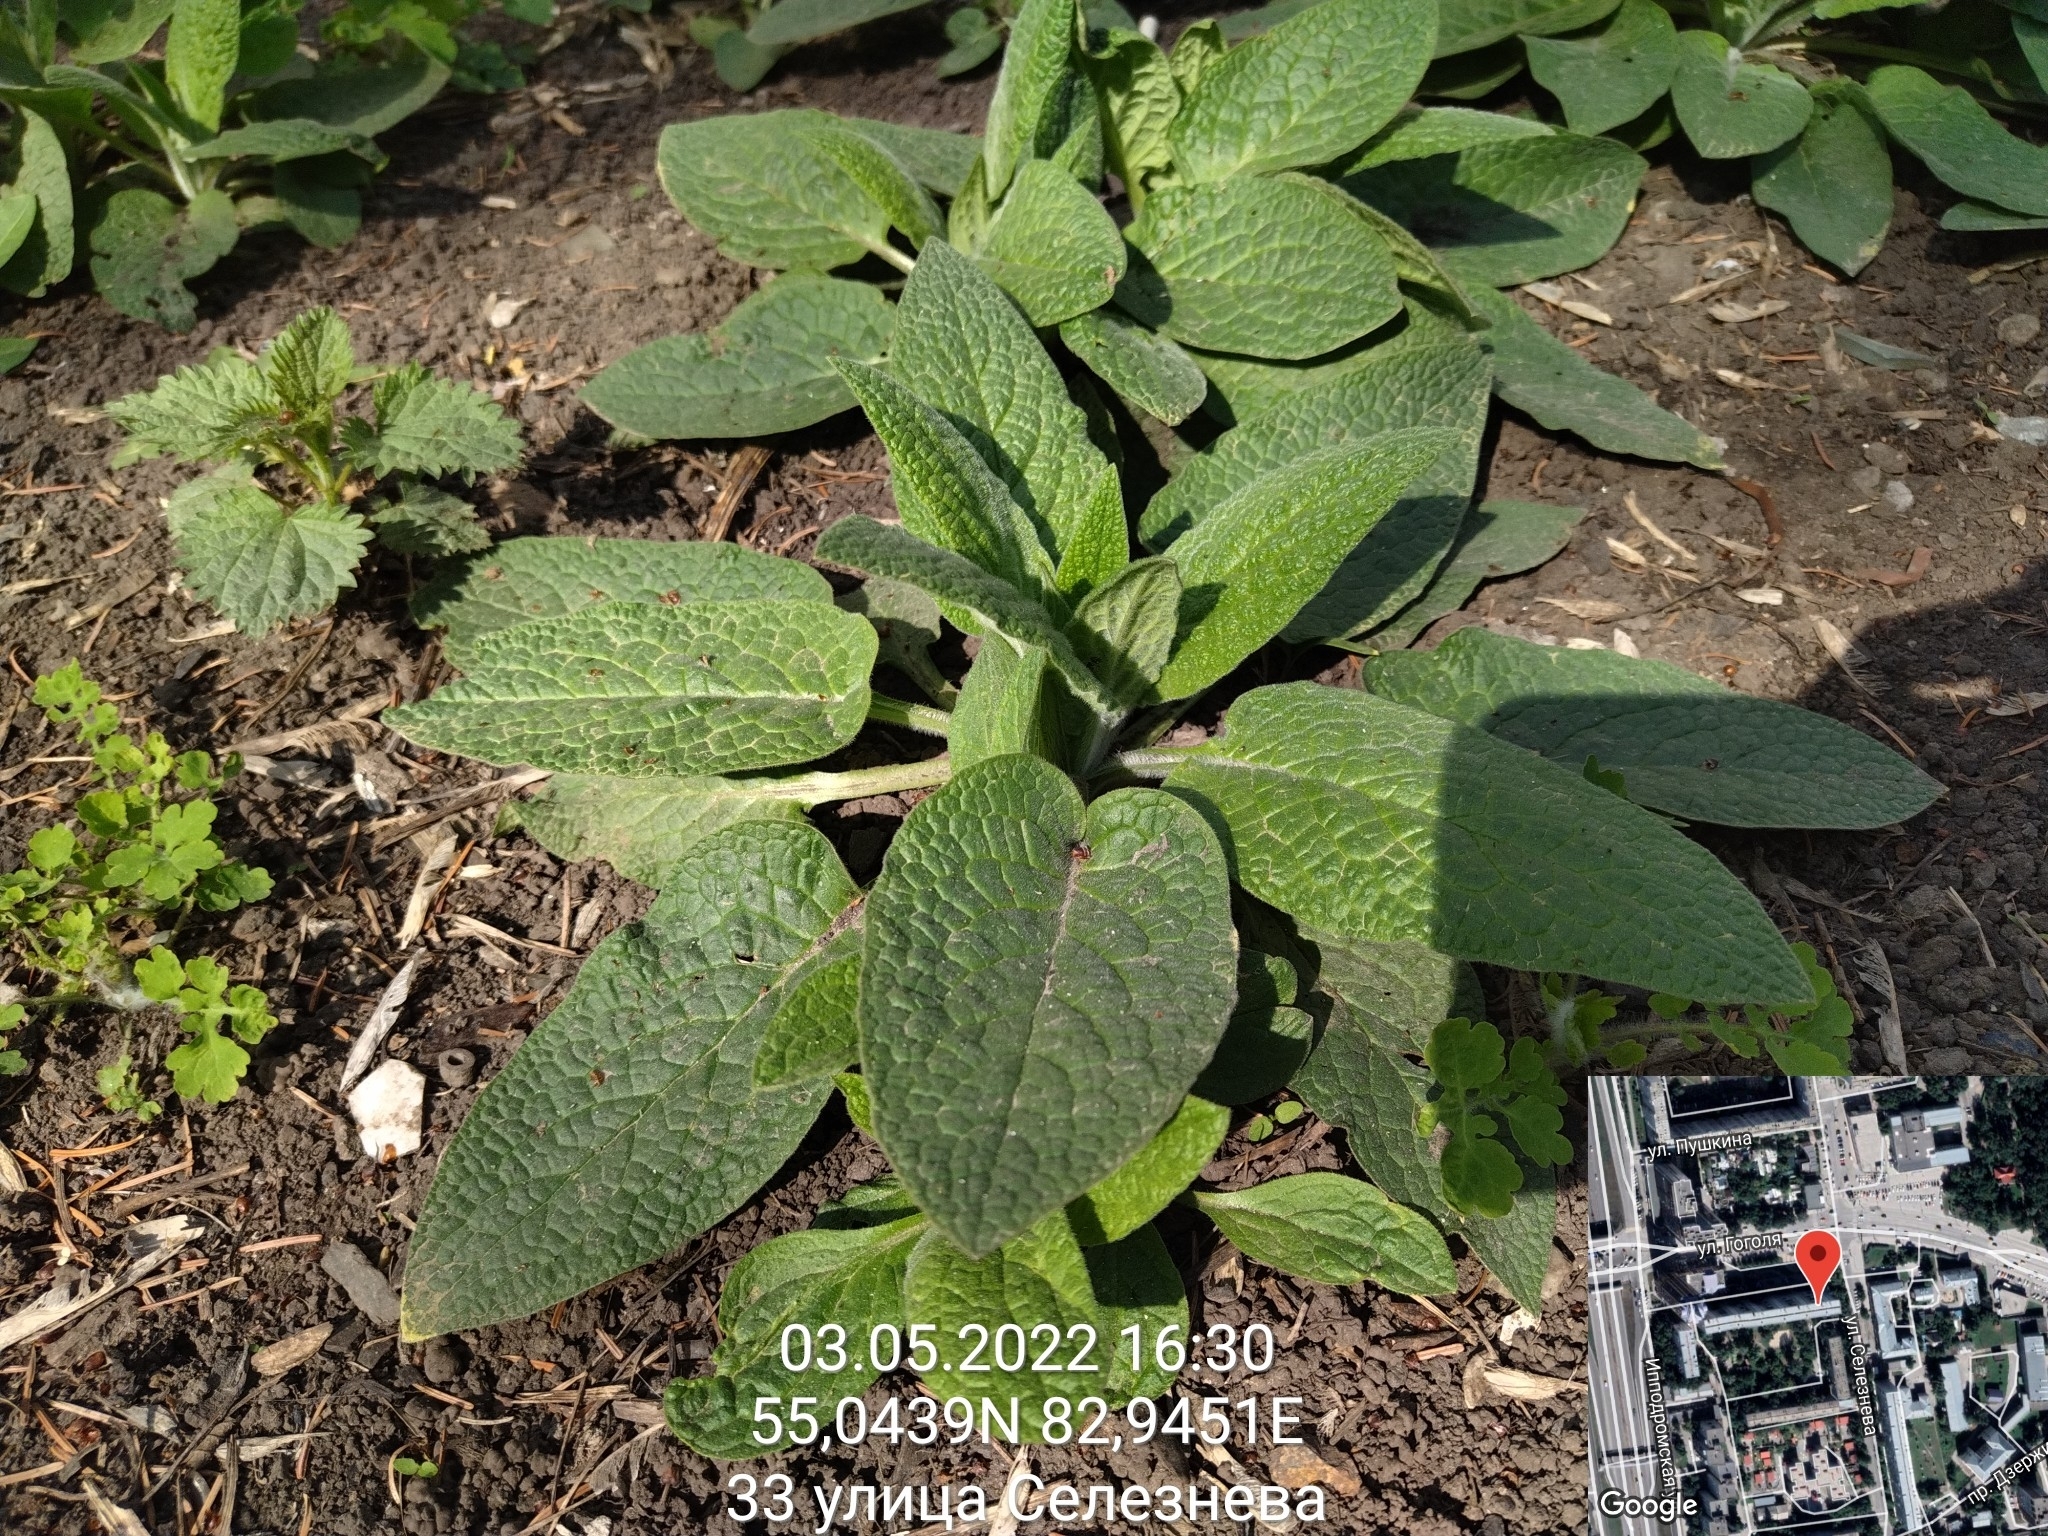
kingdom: Plantae
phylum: Tracheophyta
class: Magnoliopsida
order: Boraginales
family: Boraginaceae
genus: Symphytum
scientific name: Symphytum caucasicum
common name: Caucasian comfrey
